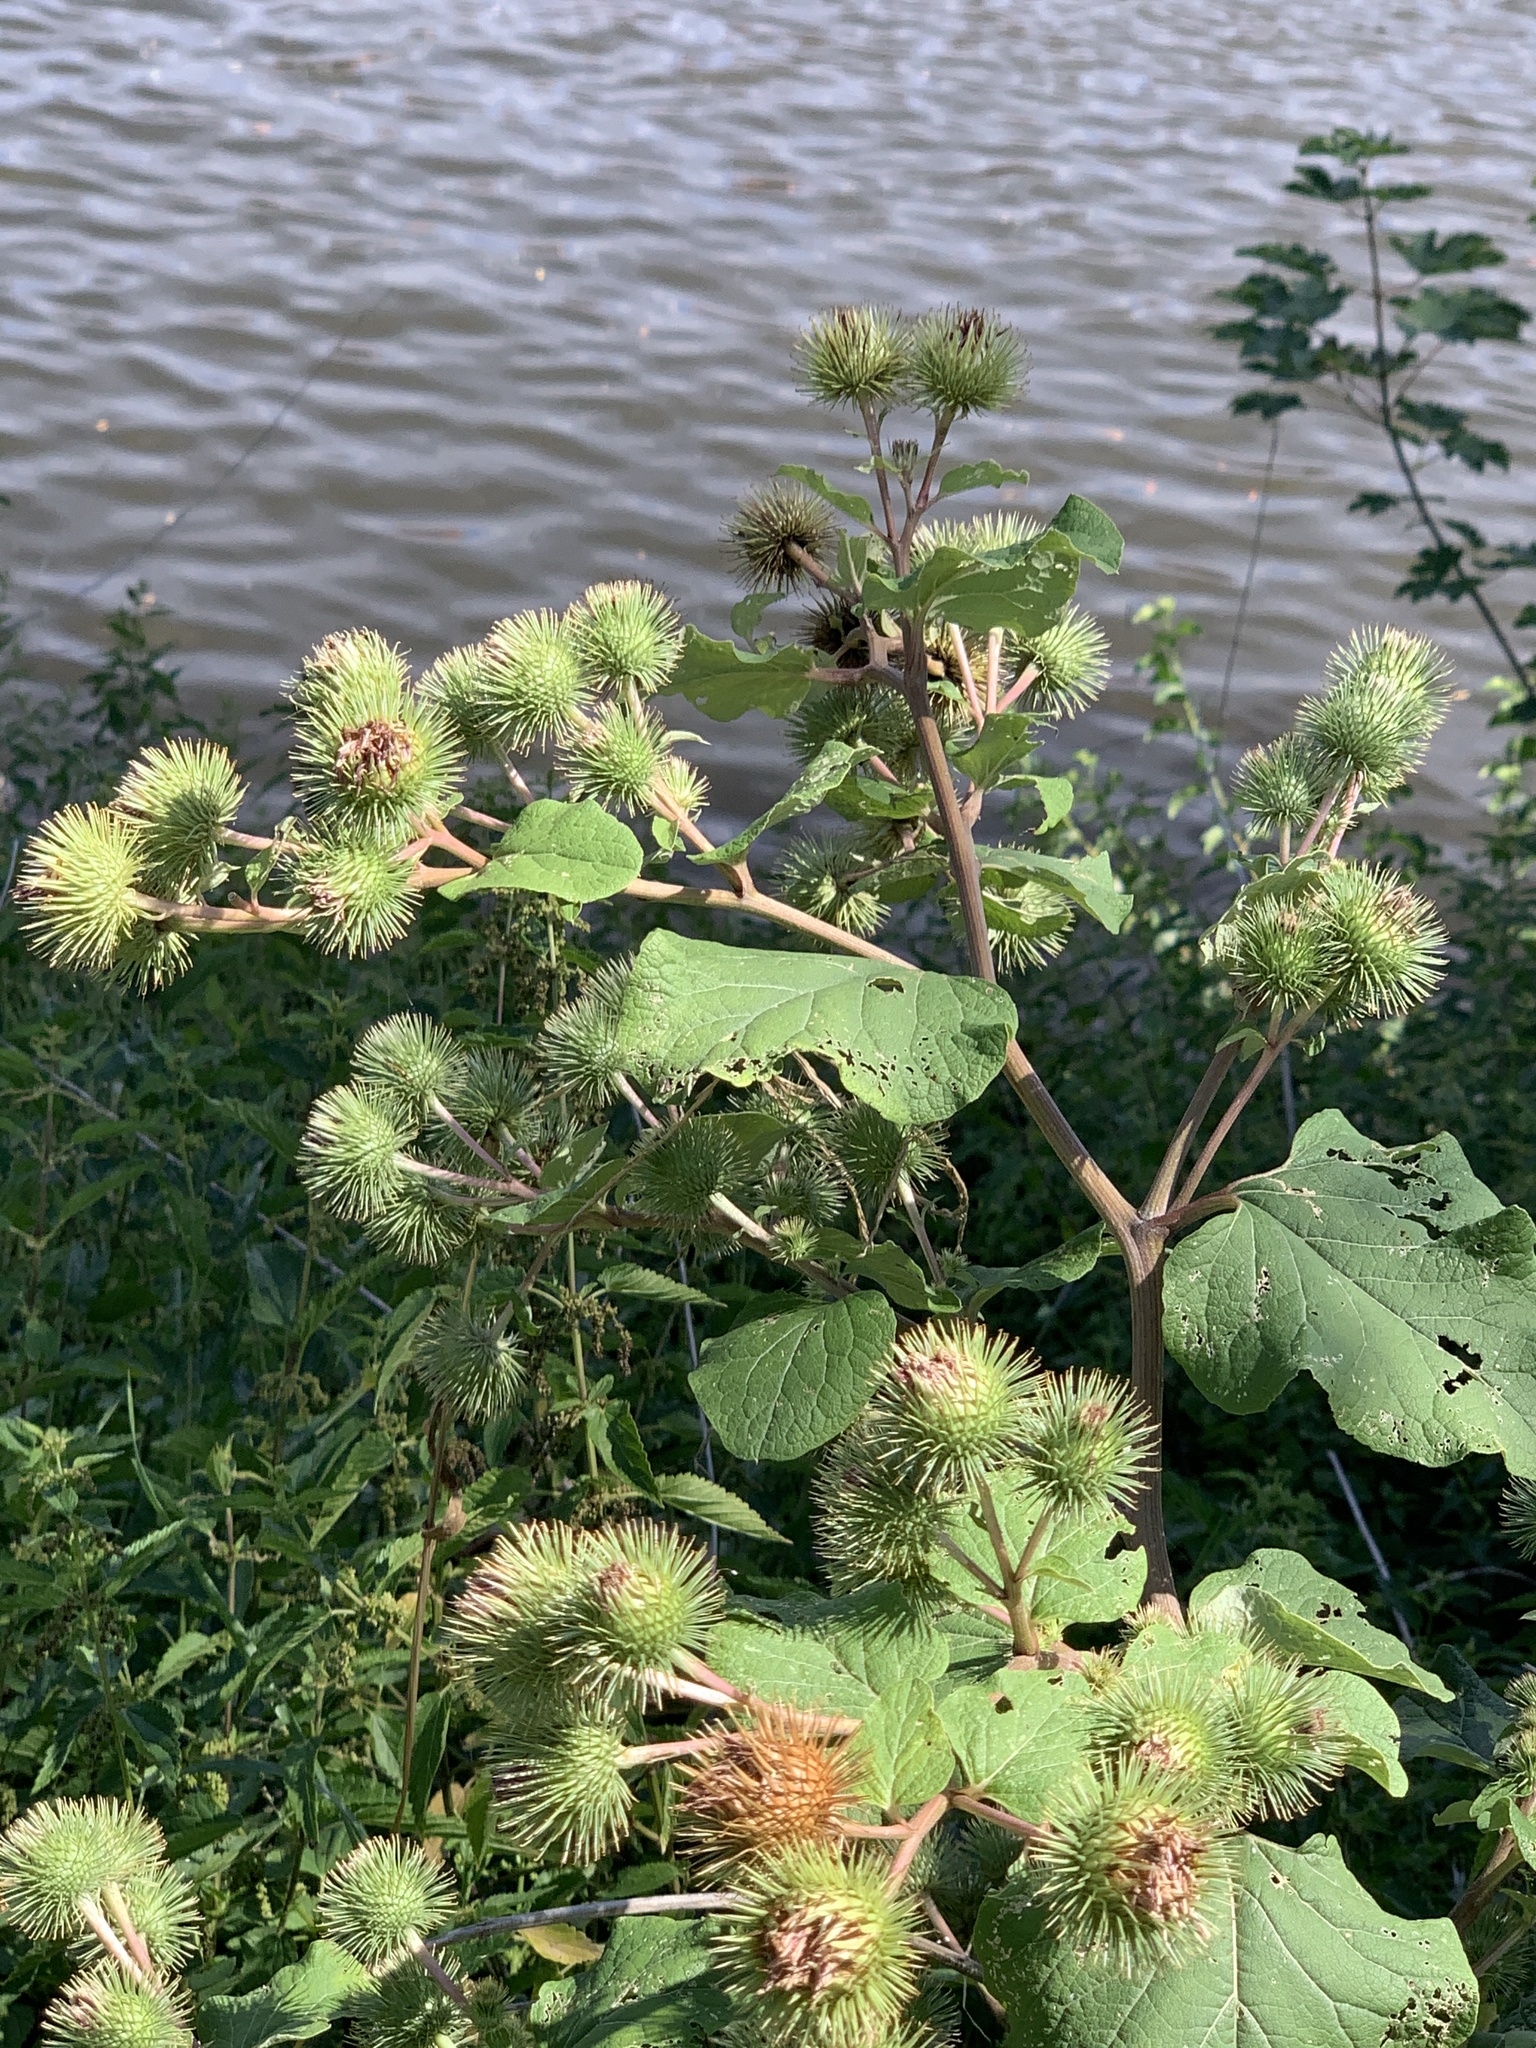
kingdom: Plantae
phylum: Tracheophyta
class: Magnoliopsida
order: Asterales
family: Asteraceae
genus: Arctium
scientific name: Arctium lappa
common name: Greater burdock
